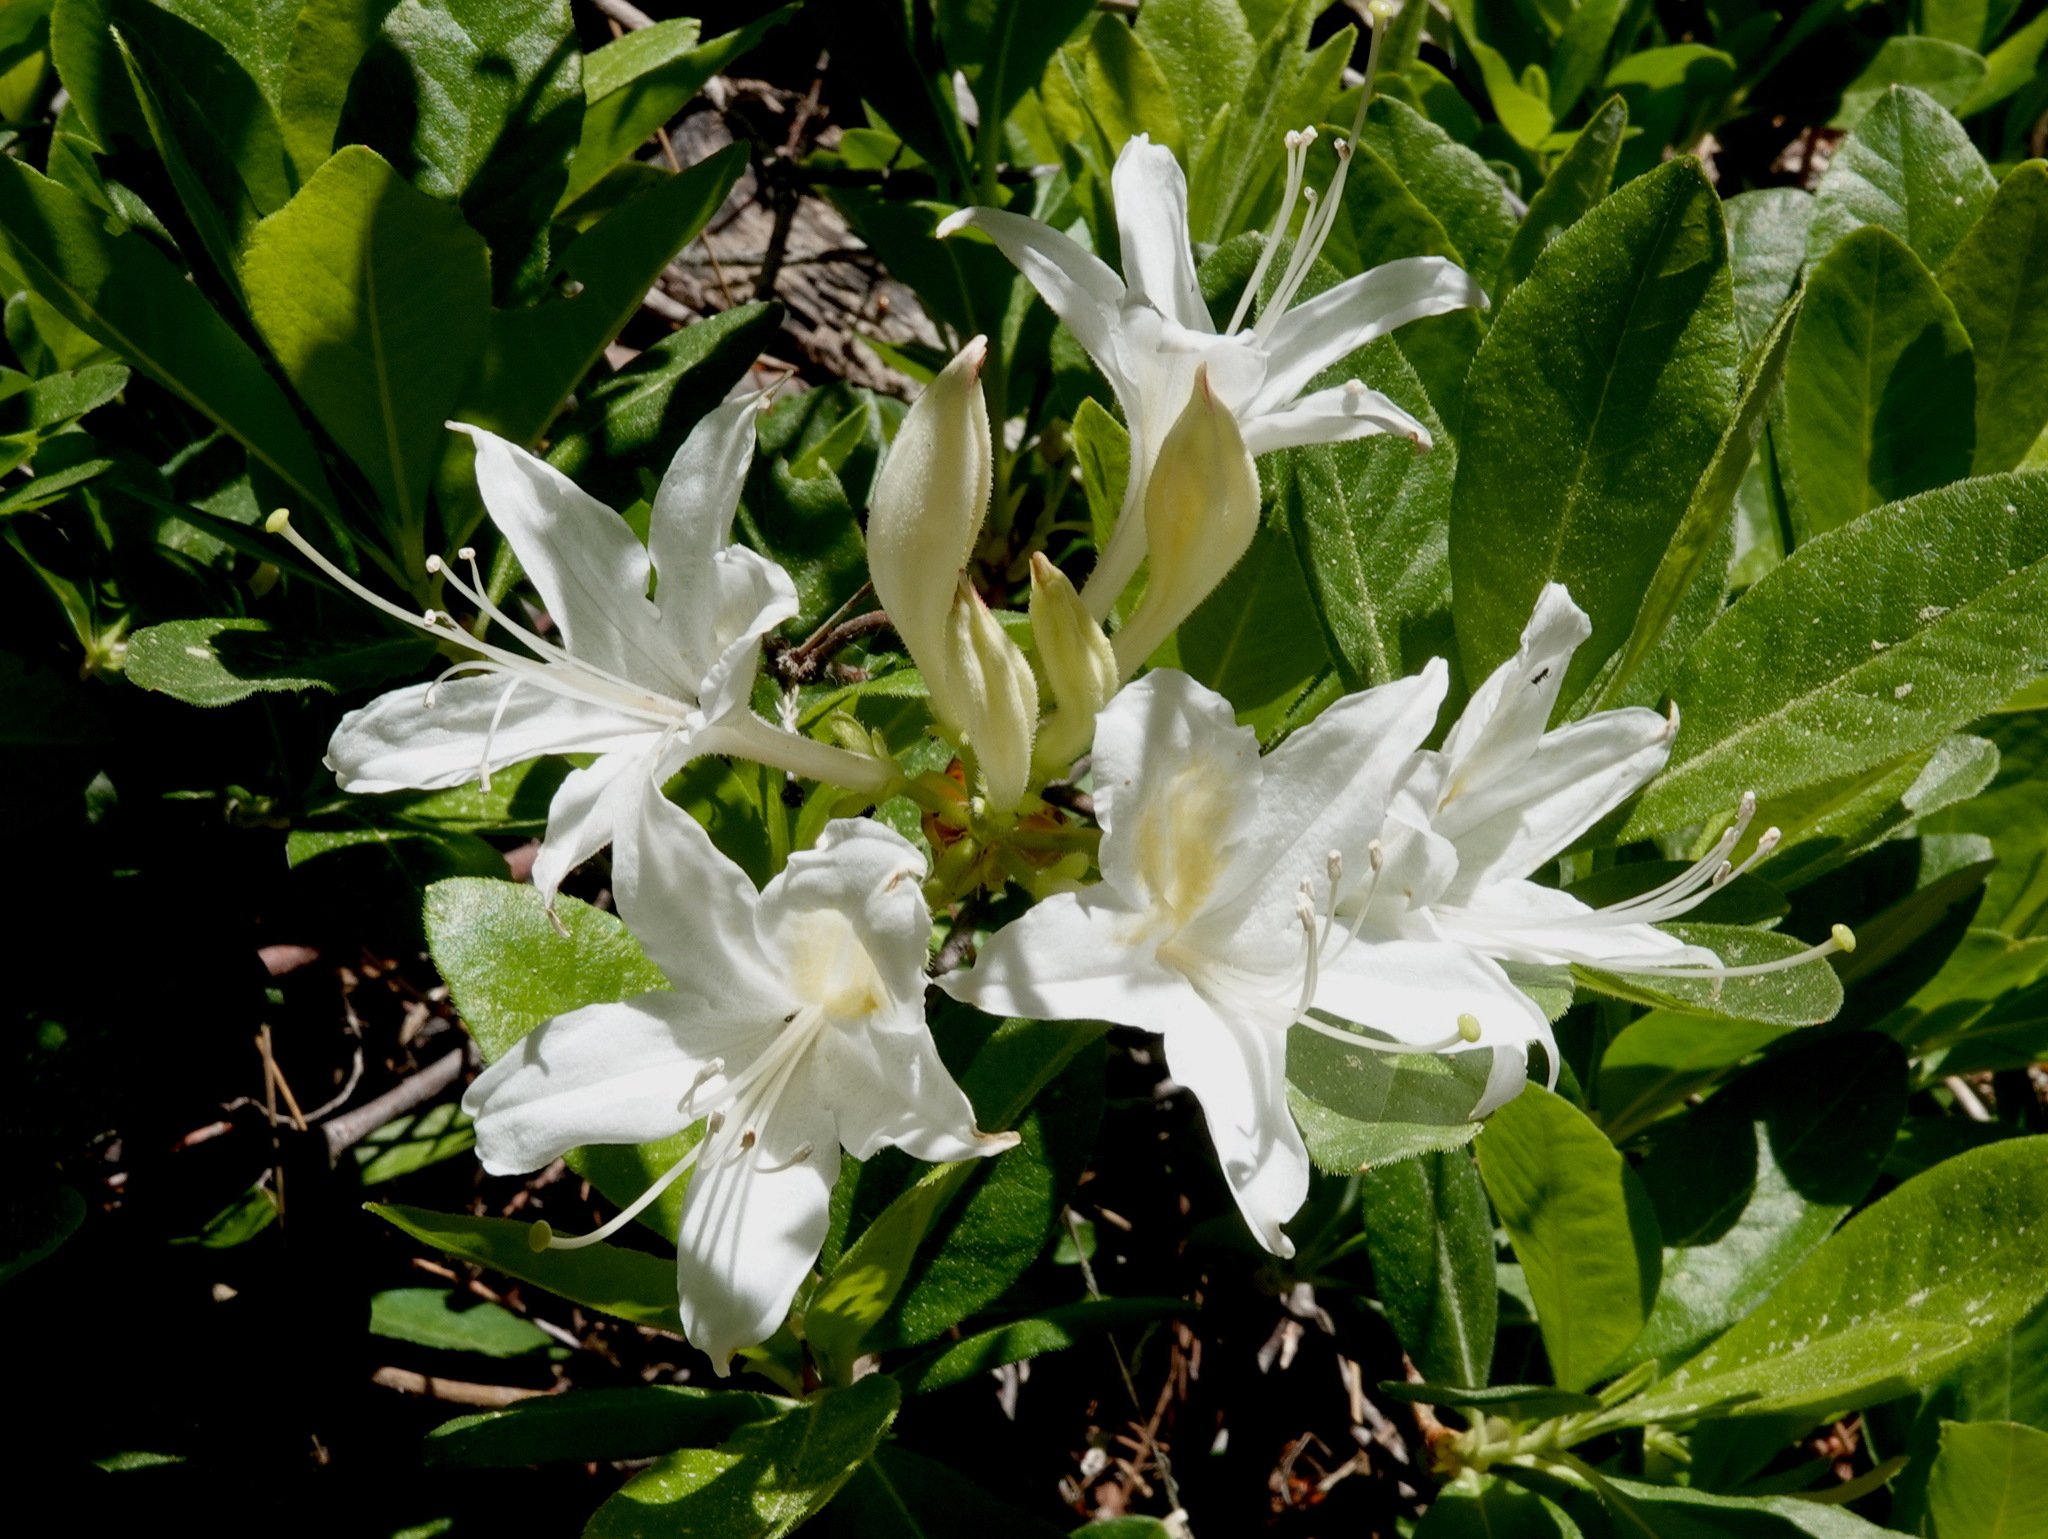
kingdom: Plantae
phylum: Tracheophyta
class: Magnoliopsida
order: Ericales
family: Ericaceae
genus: Rhododendron
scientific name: Rhododendron occidentale
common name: Western azalea
